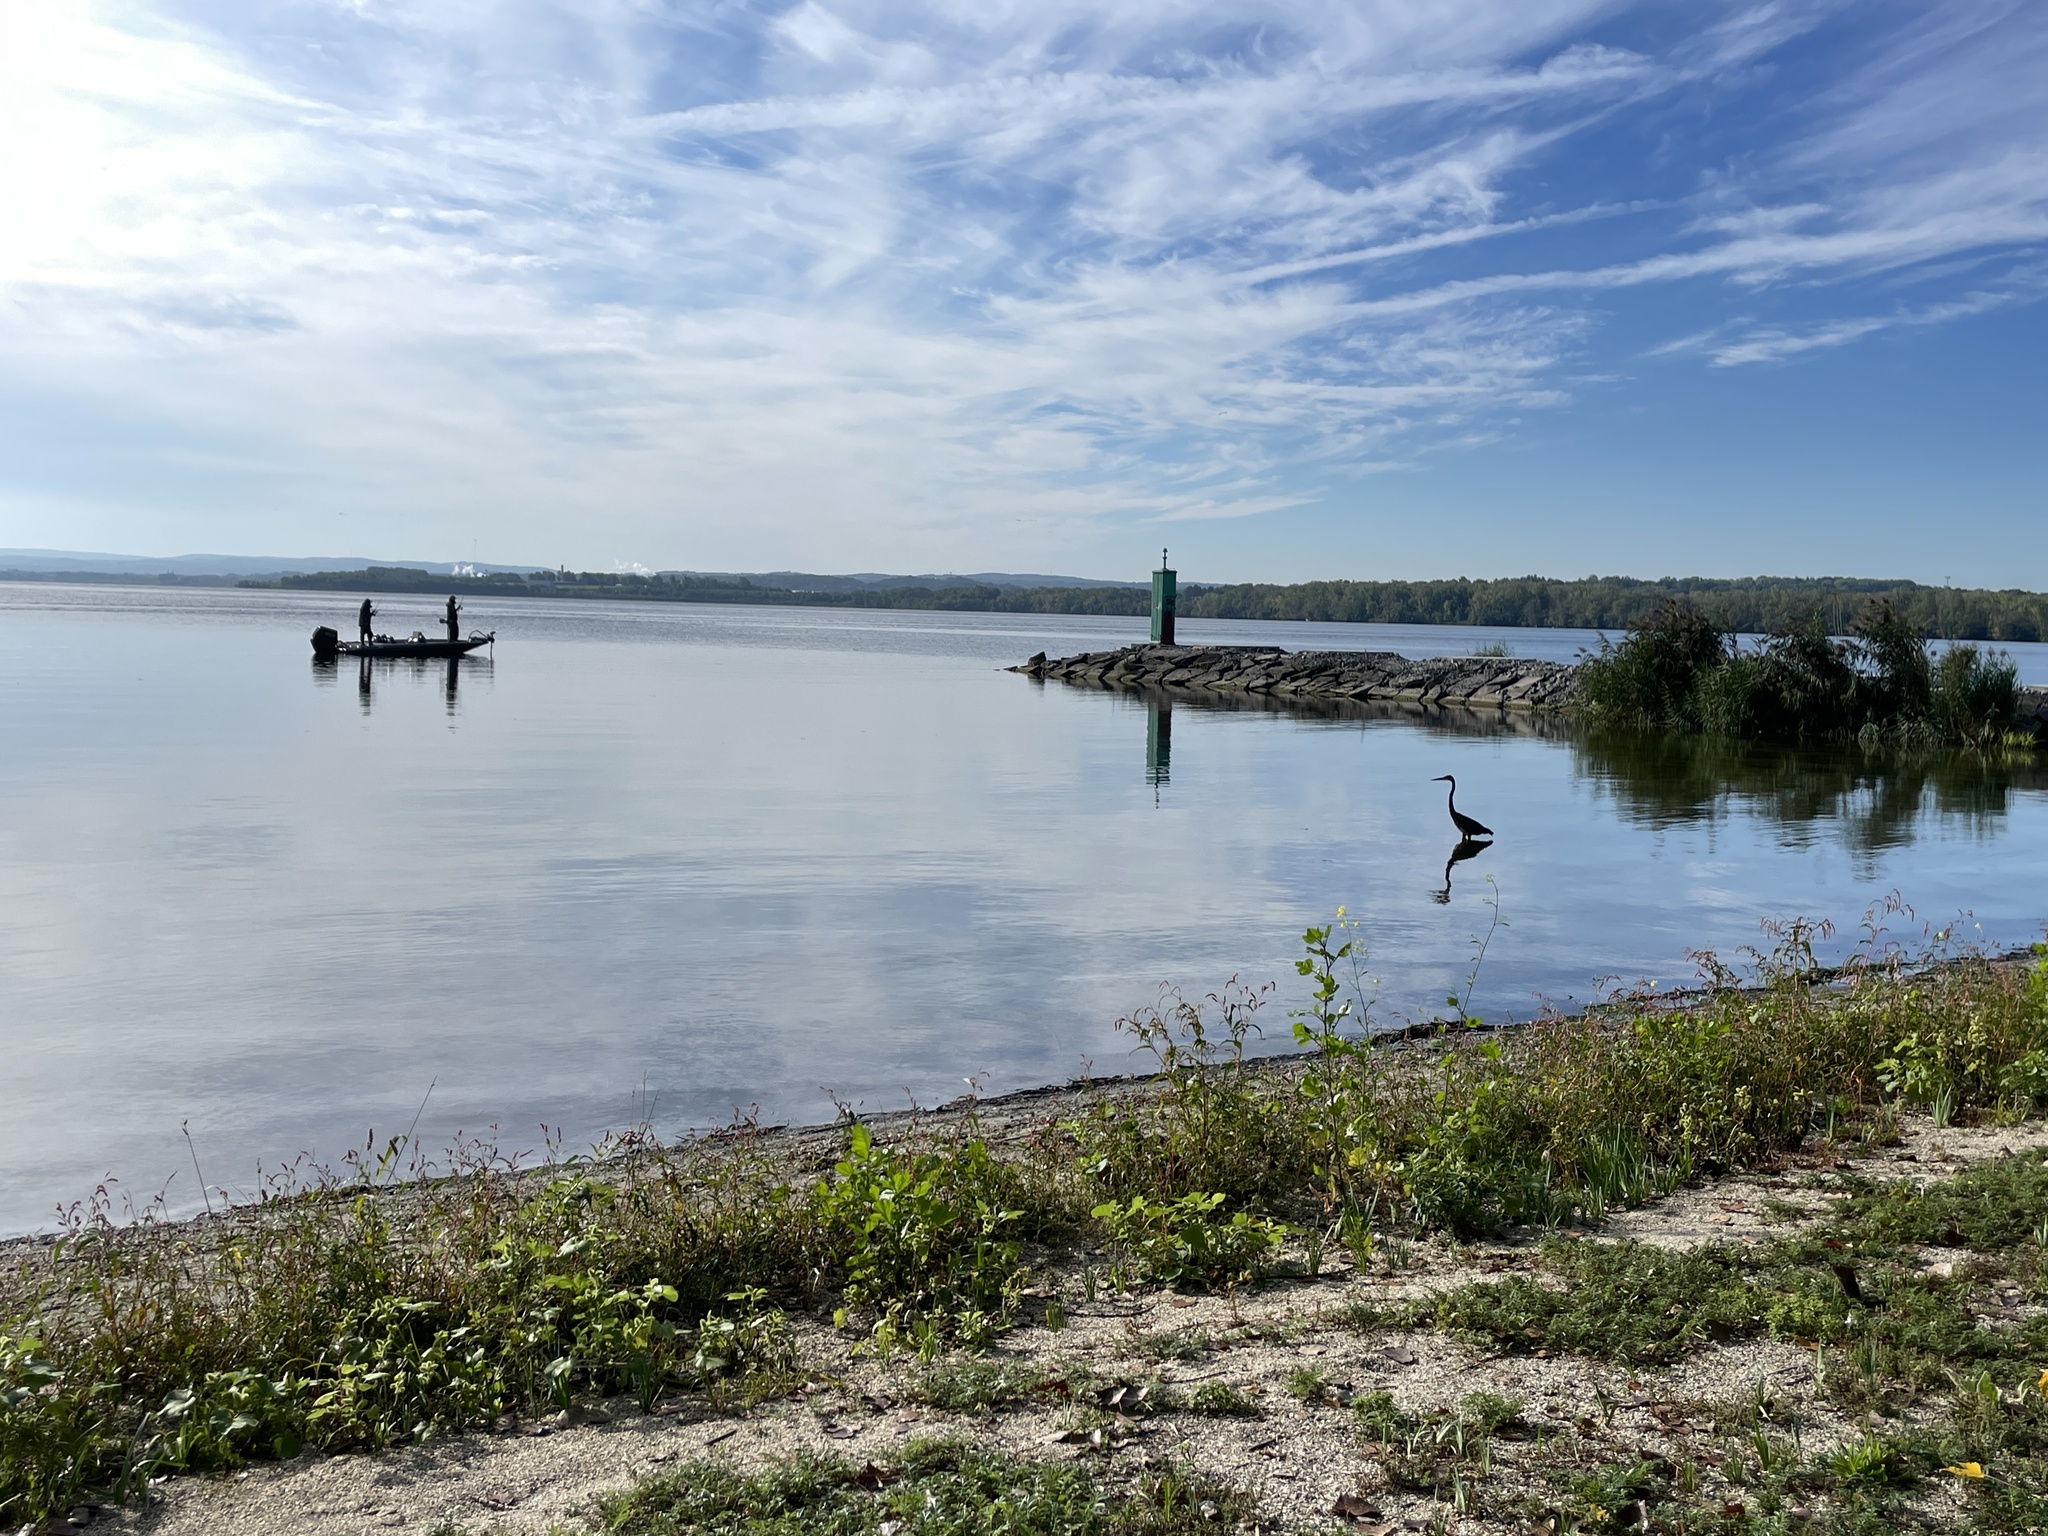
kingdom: Animalia
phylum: Chordata
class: Aves
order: Pelecaniformes
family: Ardeidae
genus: Ardea
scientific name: Ardea herodias
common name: Great blue heron
